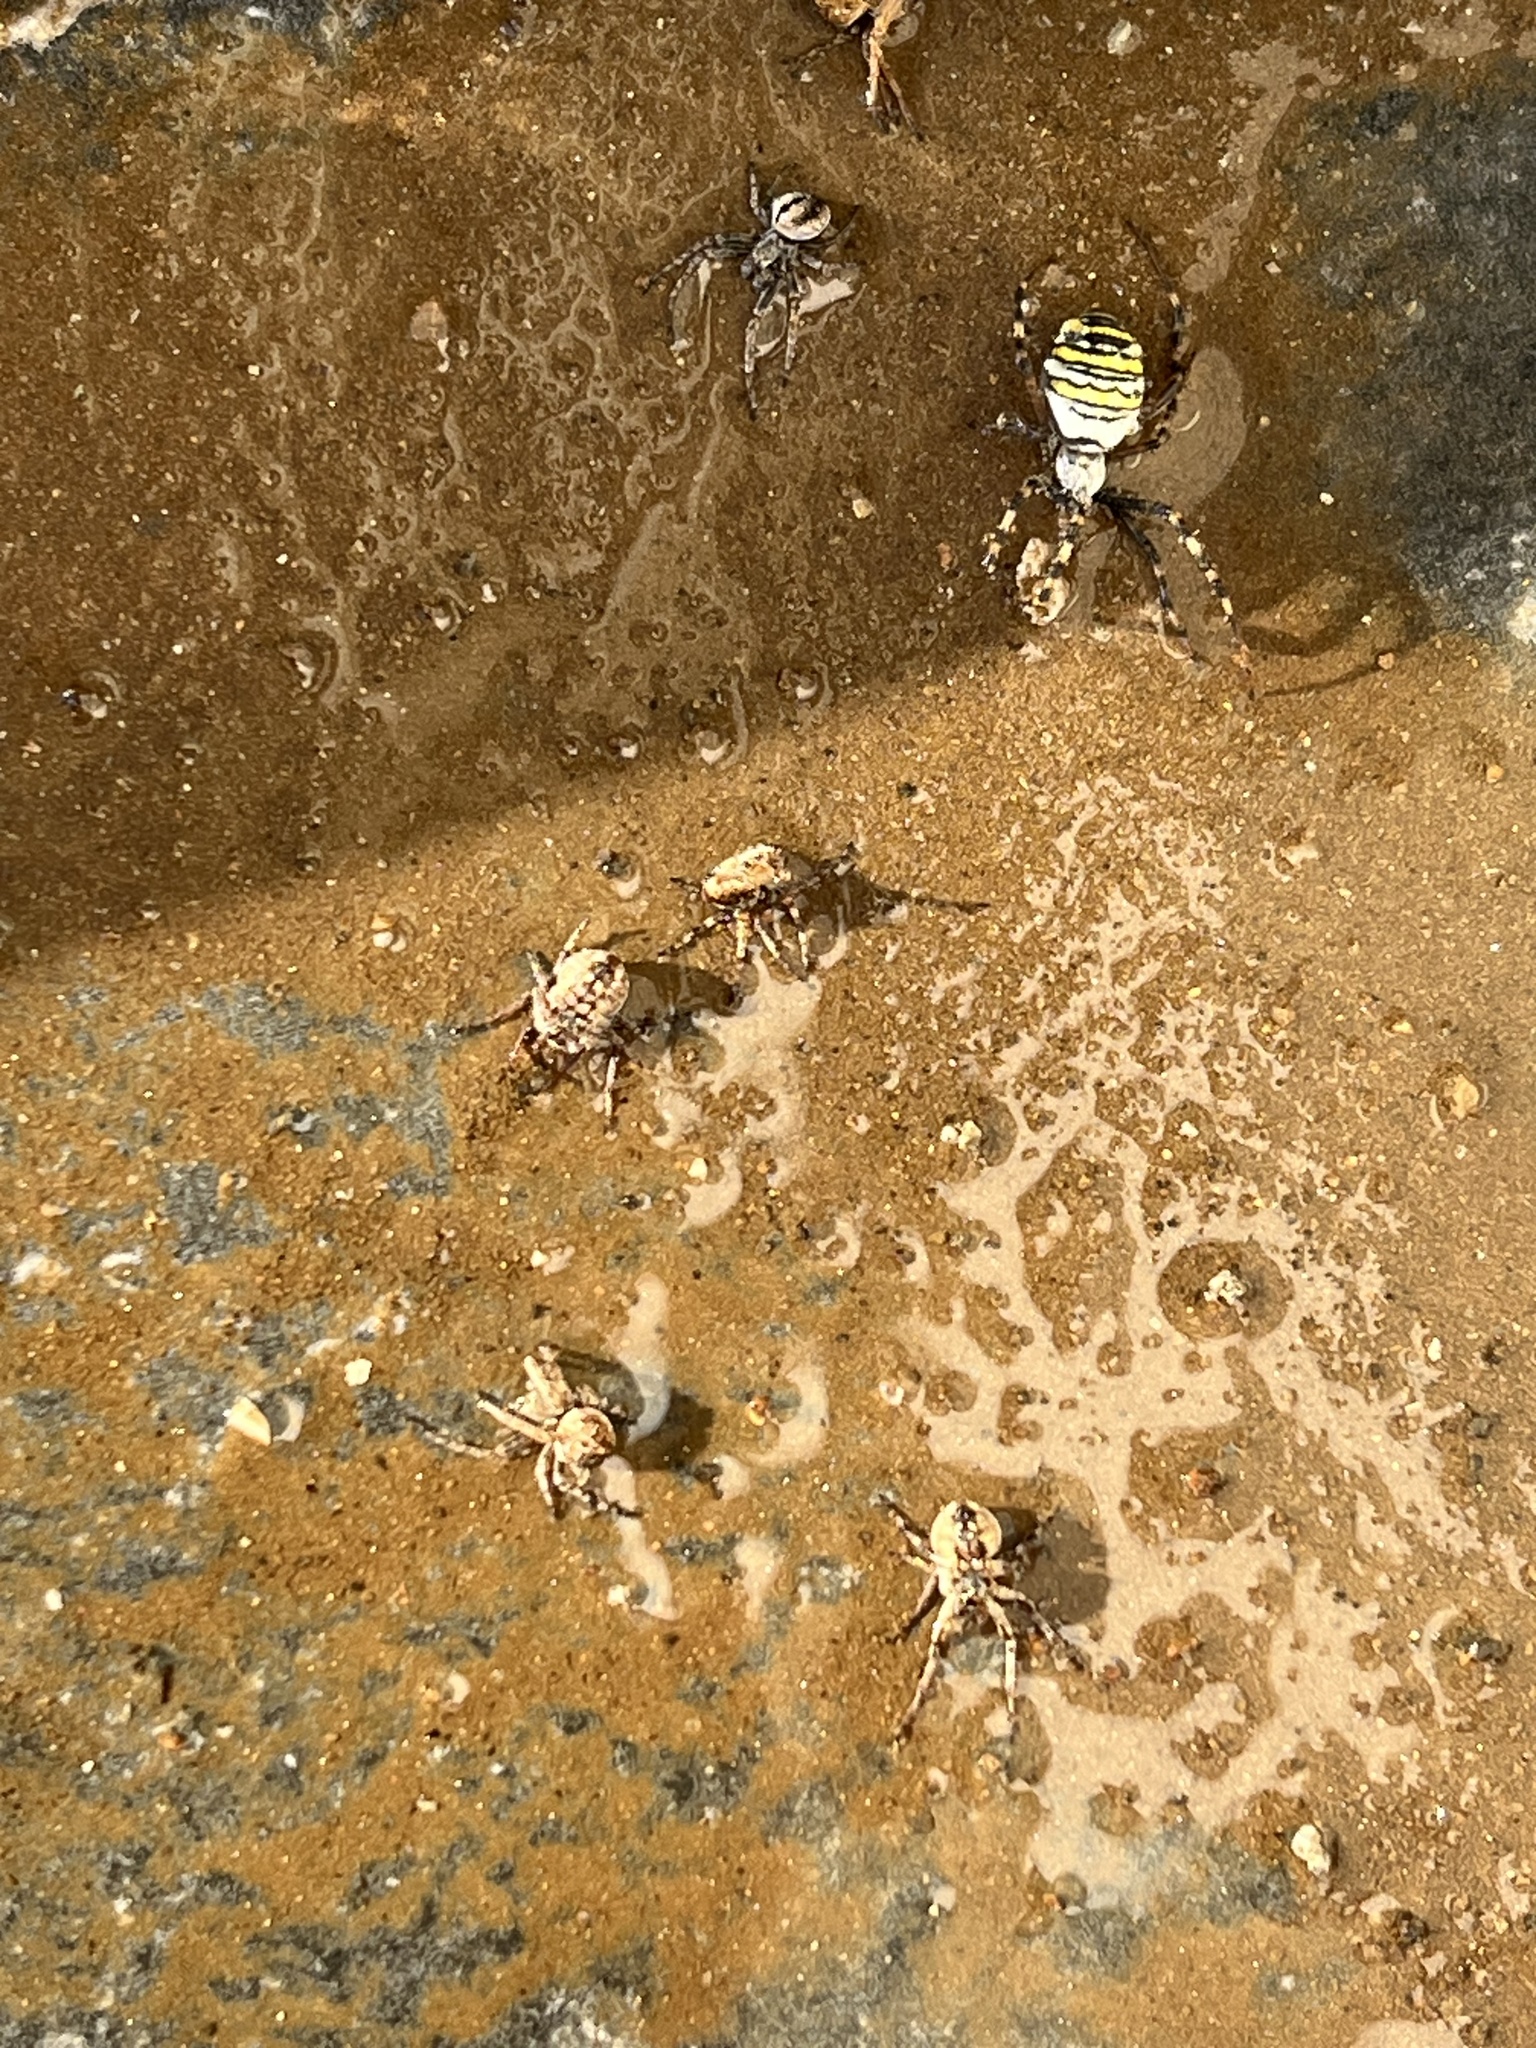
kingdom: Animalia
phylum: Arthropoda
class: Insecta
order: Hymenoptera
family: Sphecidae
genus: Sceliphron
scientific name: Sceliphron caementarium
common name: Mud dauber
